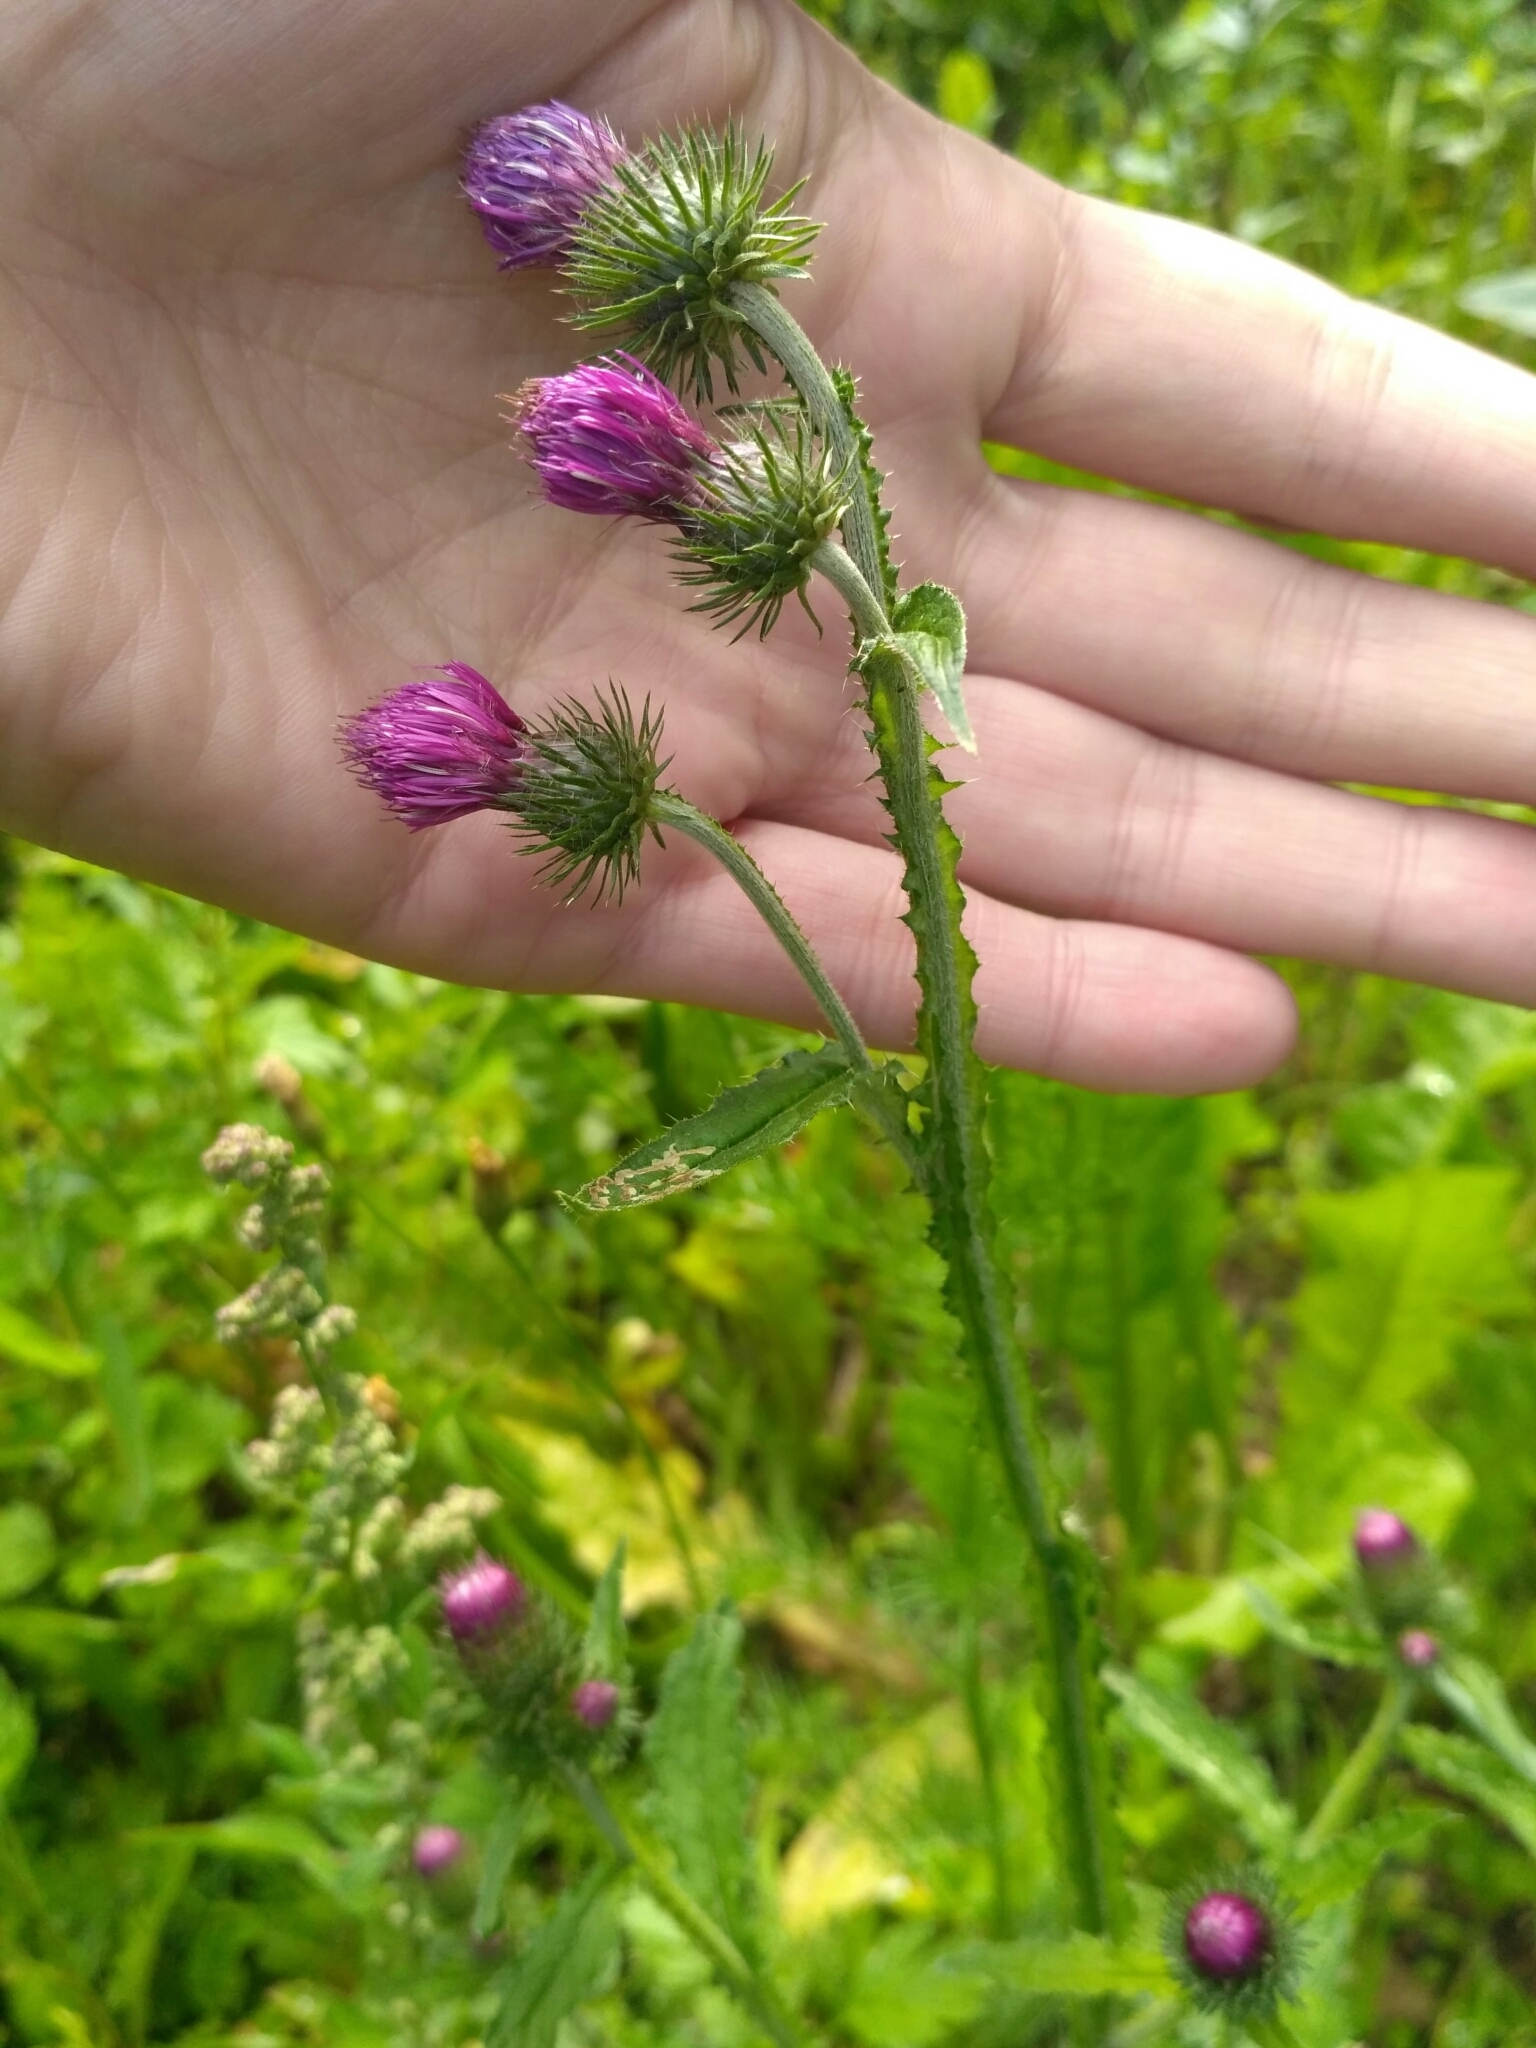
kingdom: Plantae
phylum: Tracheophyta
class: Magnoliopsida
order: Asterales
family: Asteraceae
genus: Carduus
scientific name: Carduus crispus
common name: Welted thistle
